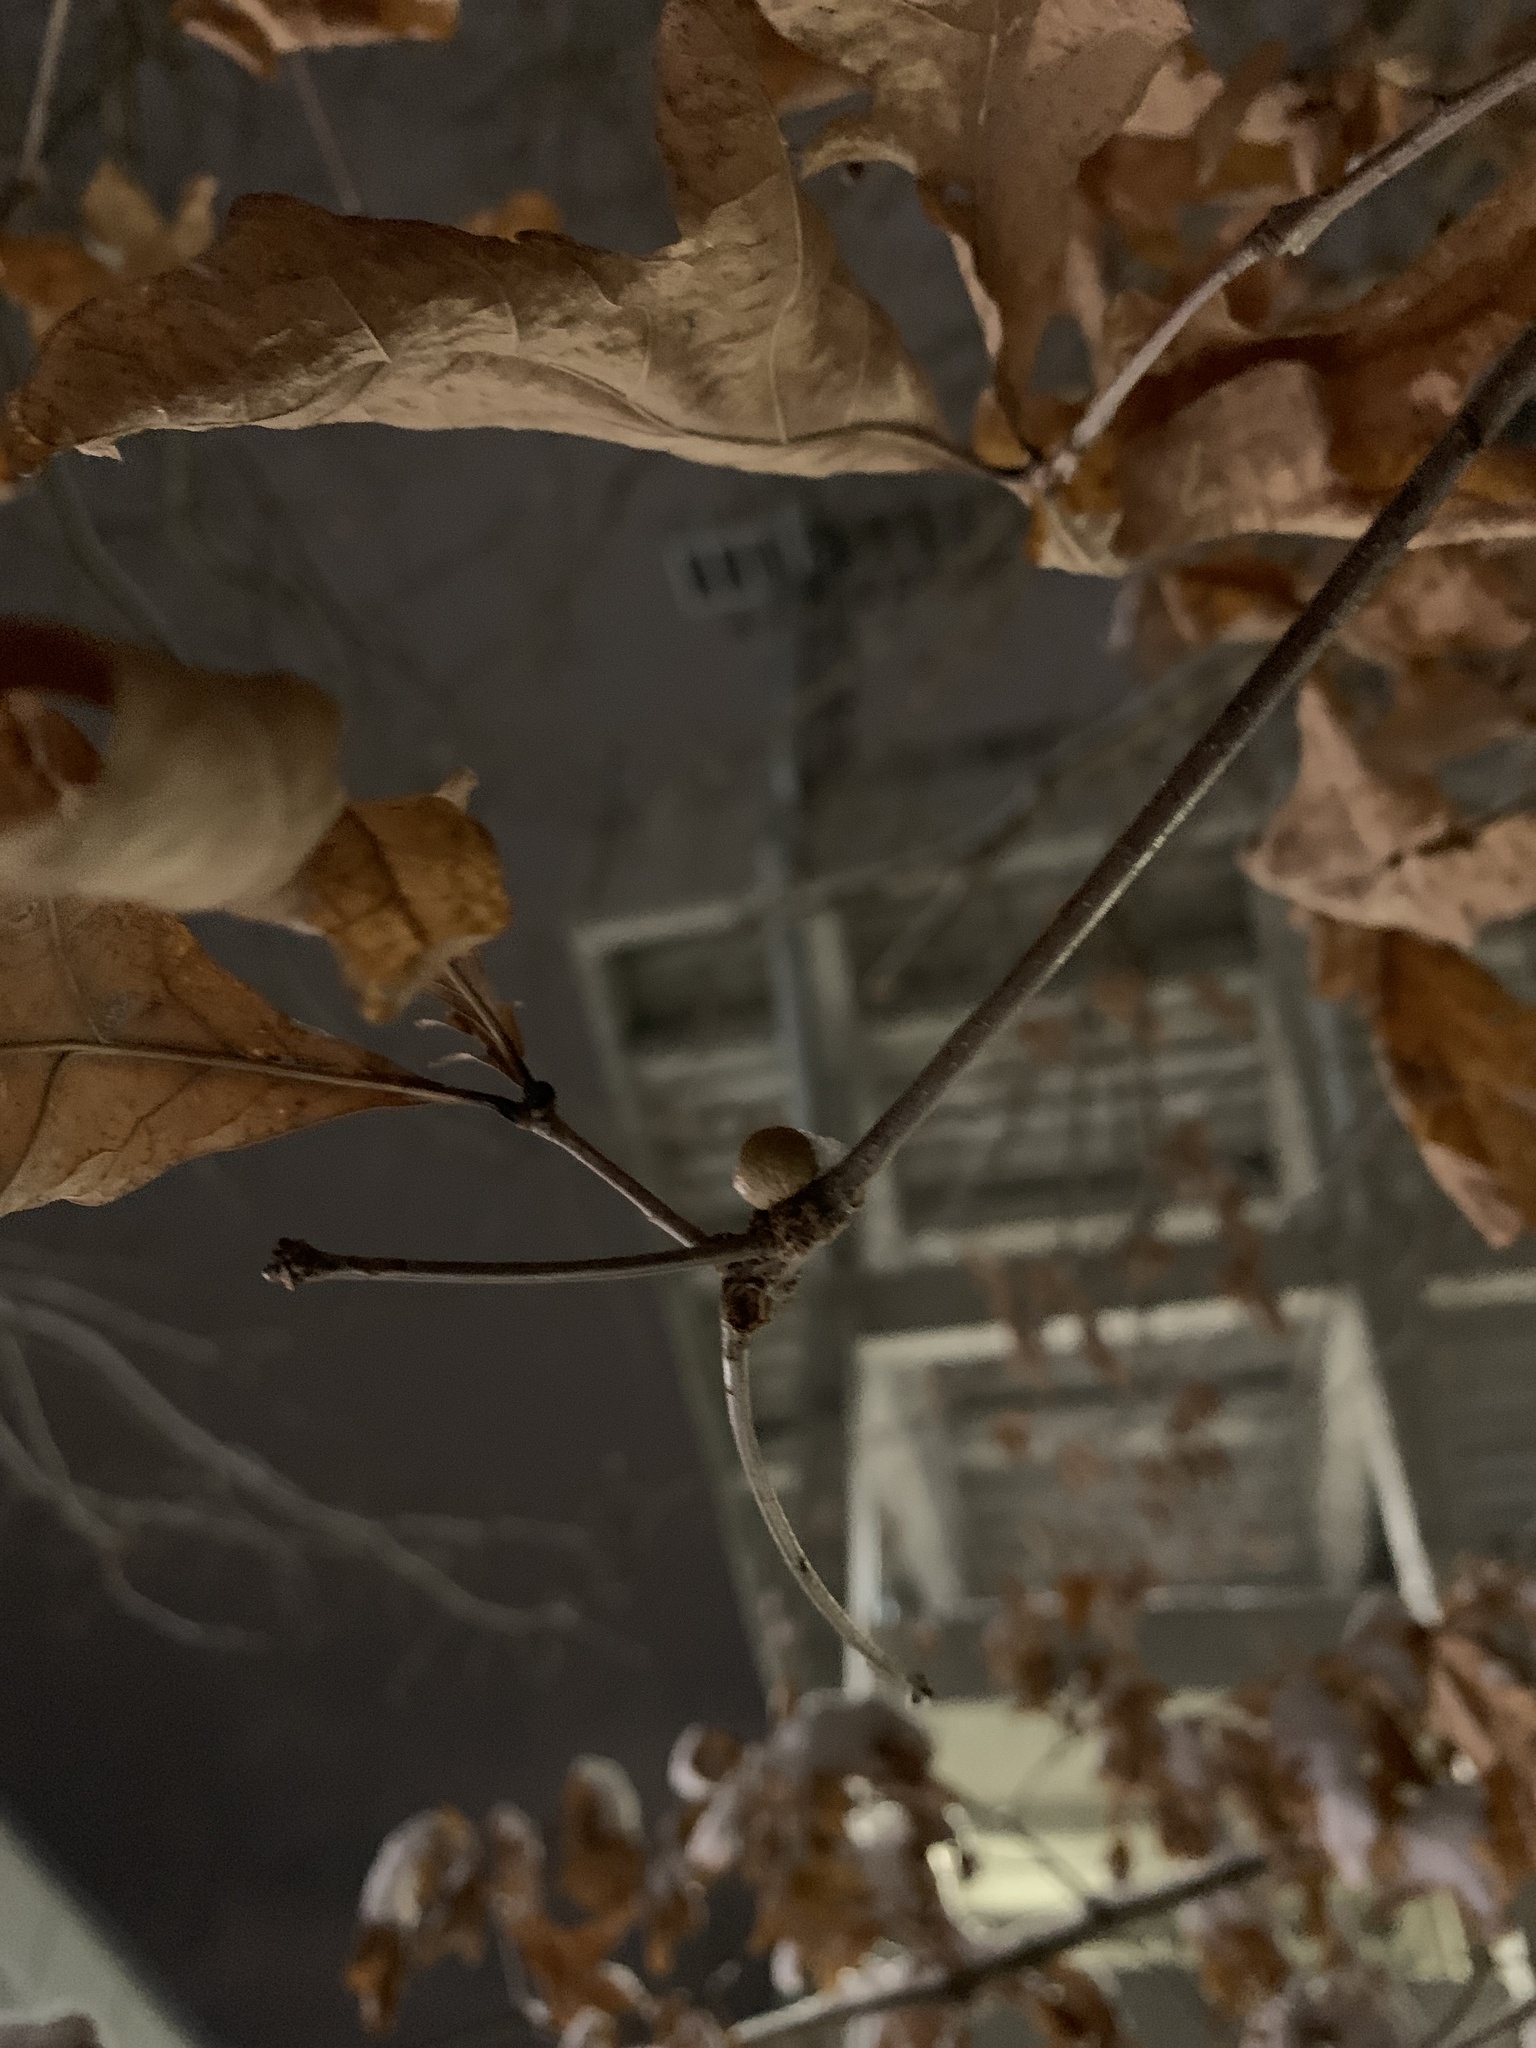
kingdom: Animalia
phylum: Arthropoda
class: Insecta
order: Hymenoptera
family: Cynipidae
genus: Disholcaspis
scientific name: Disholcaspis quercusglobulus
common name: Round bullet gall wasp
